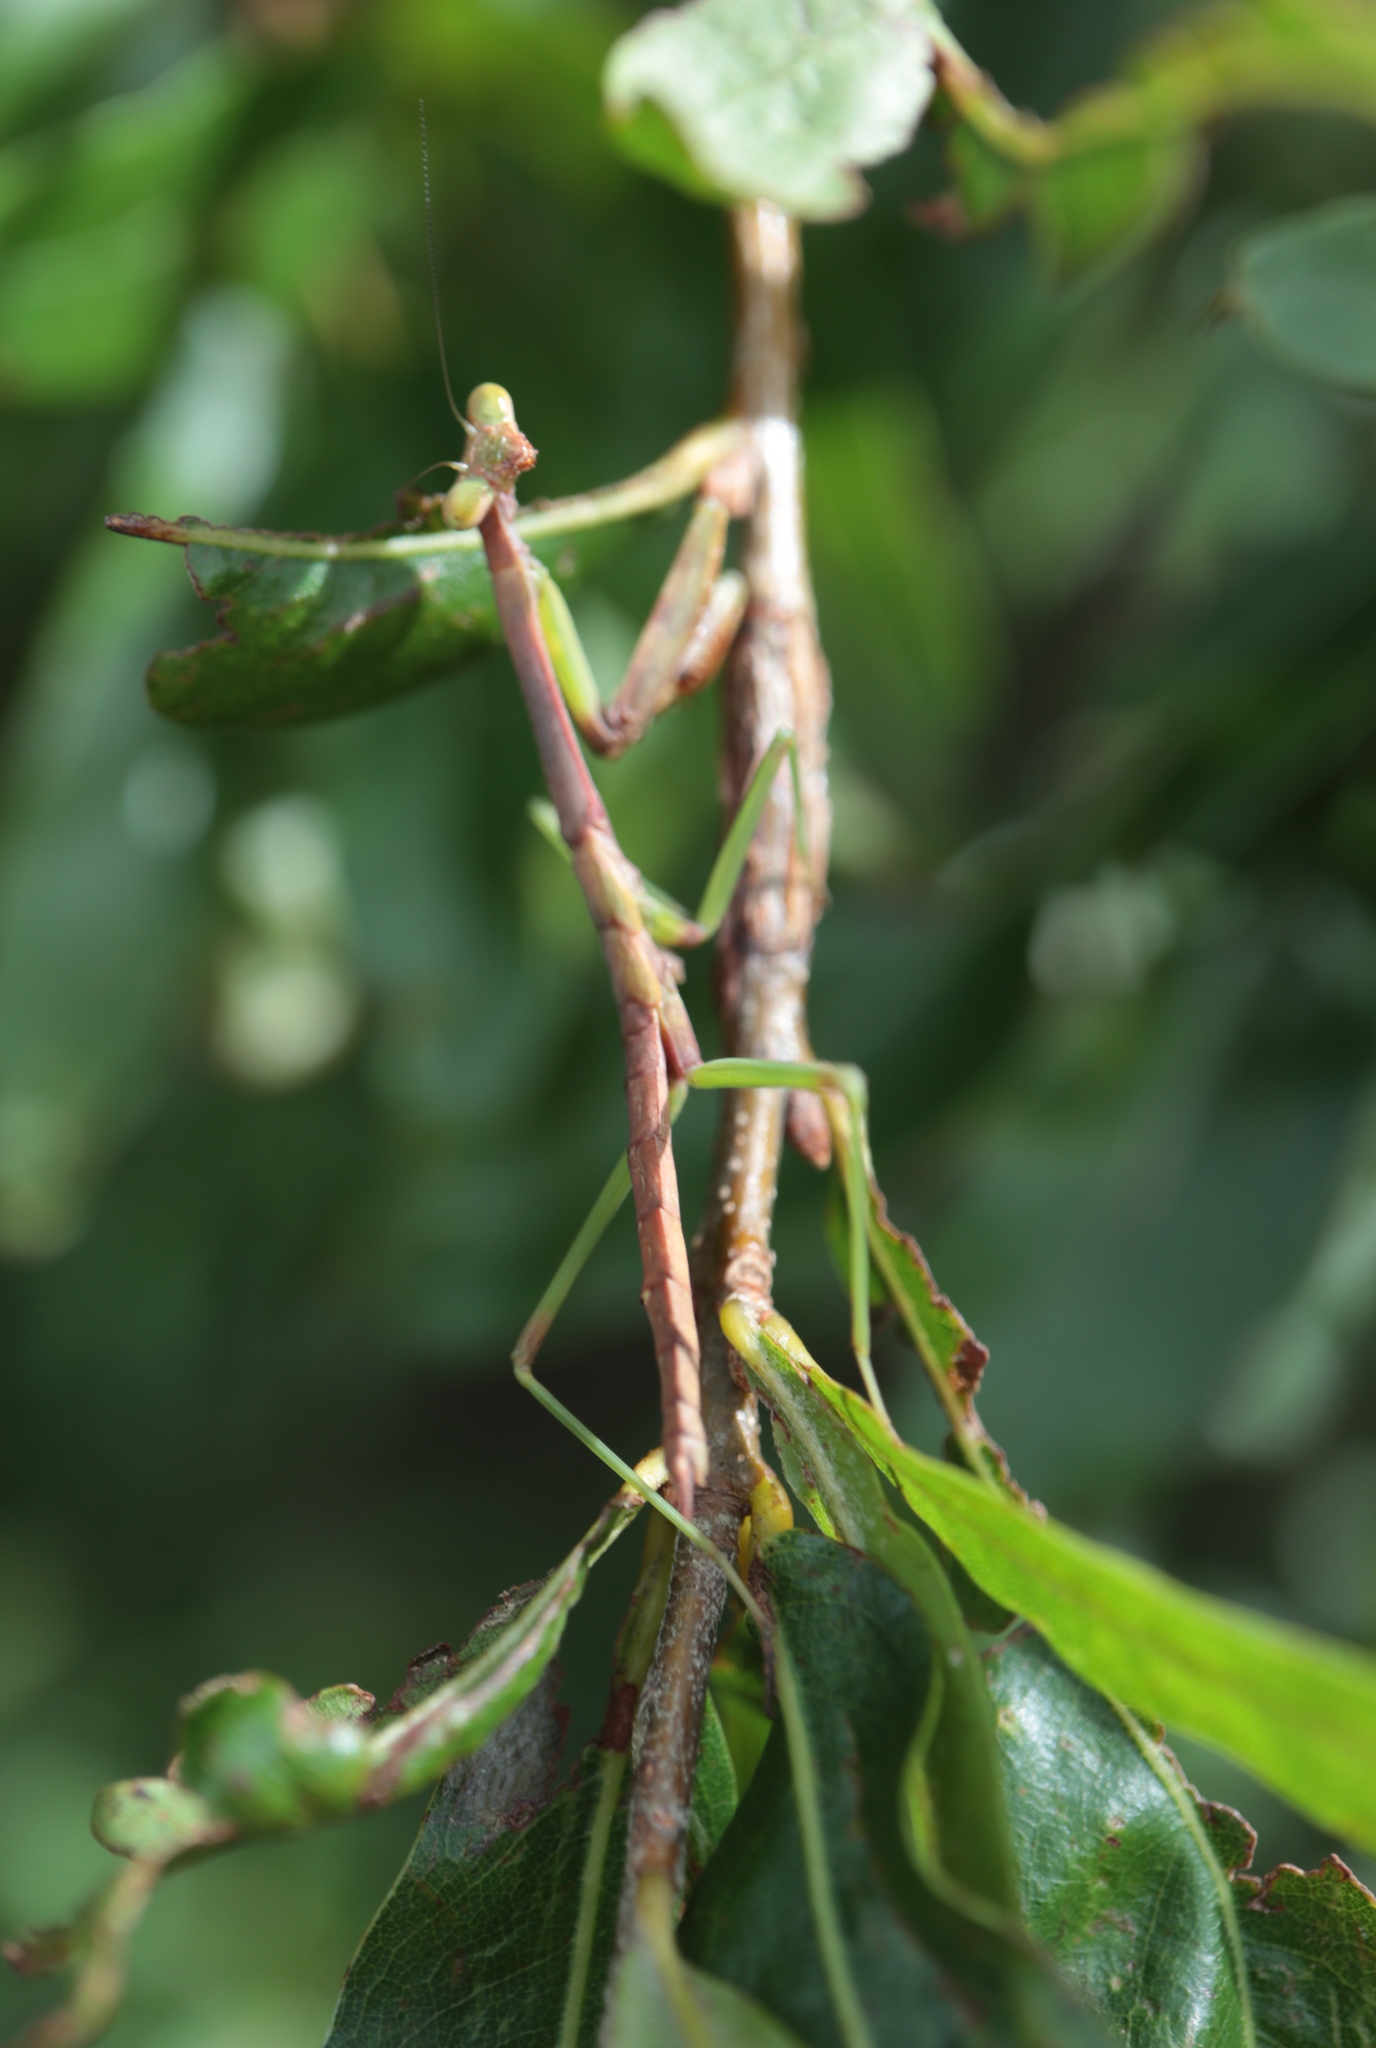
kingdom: Animalia
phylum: Arthropoda
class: Insecta
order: Mantodea
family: Mantidae
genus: Stagmomantis
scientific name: Stagmomantis carolina
